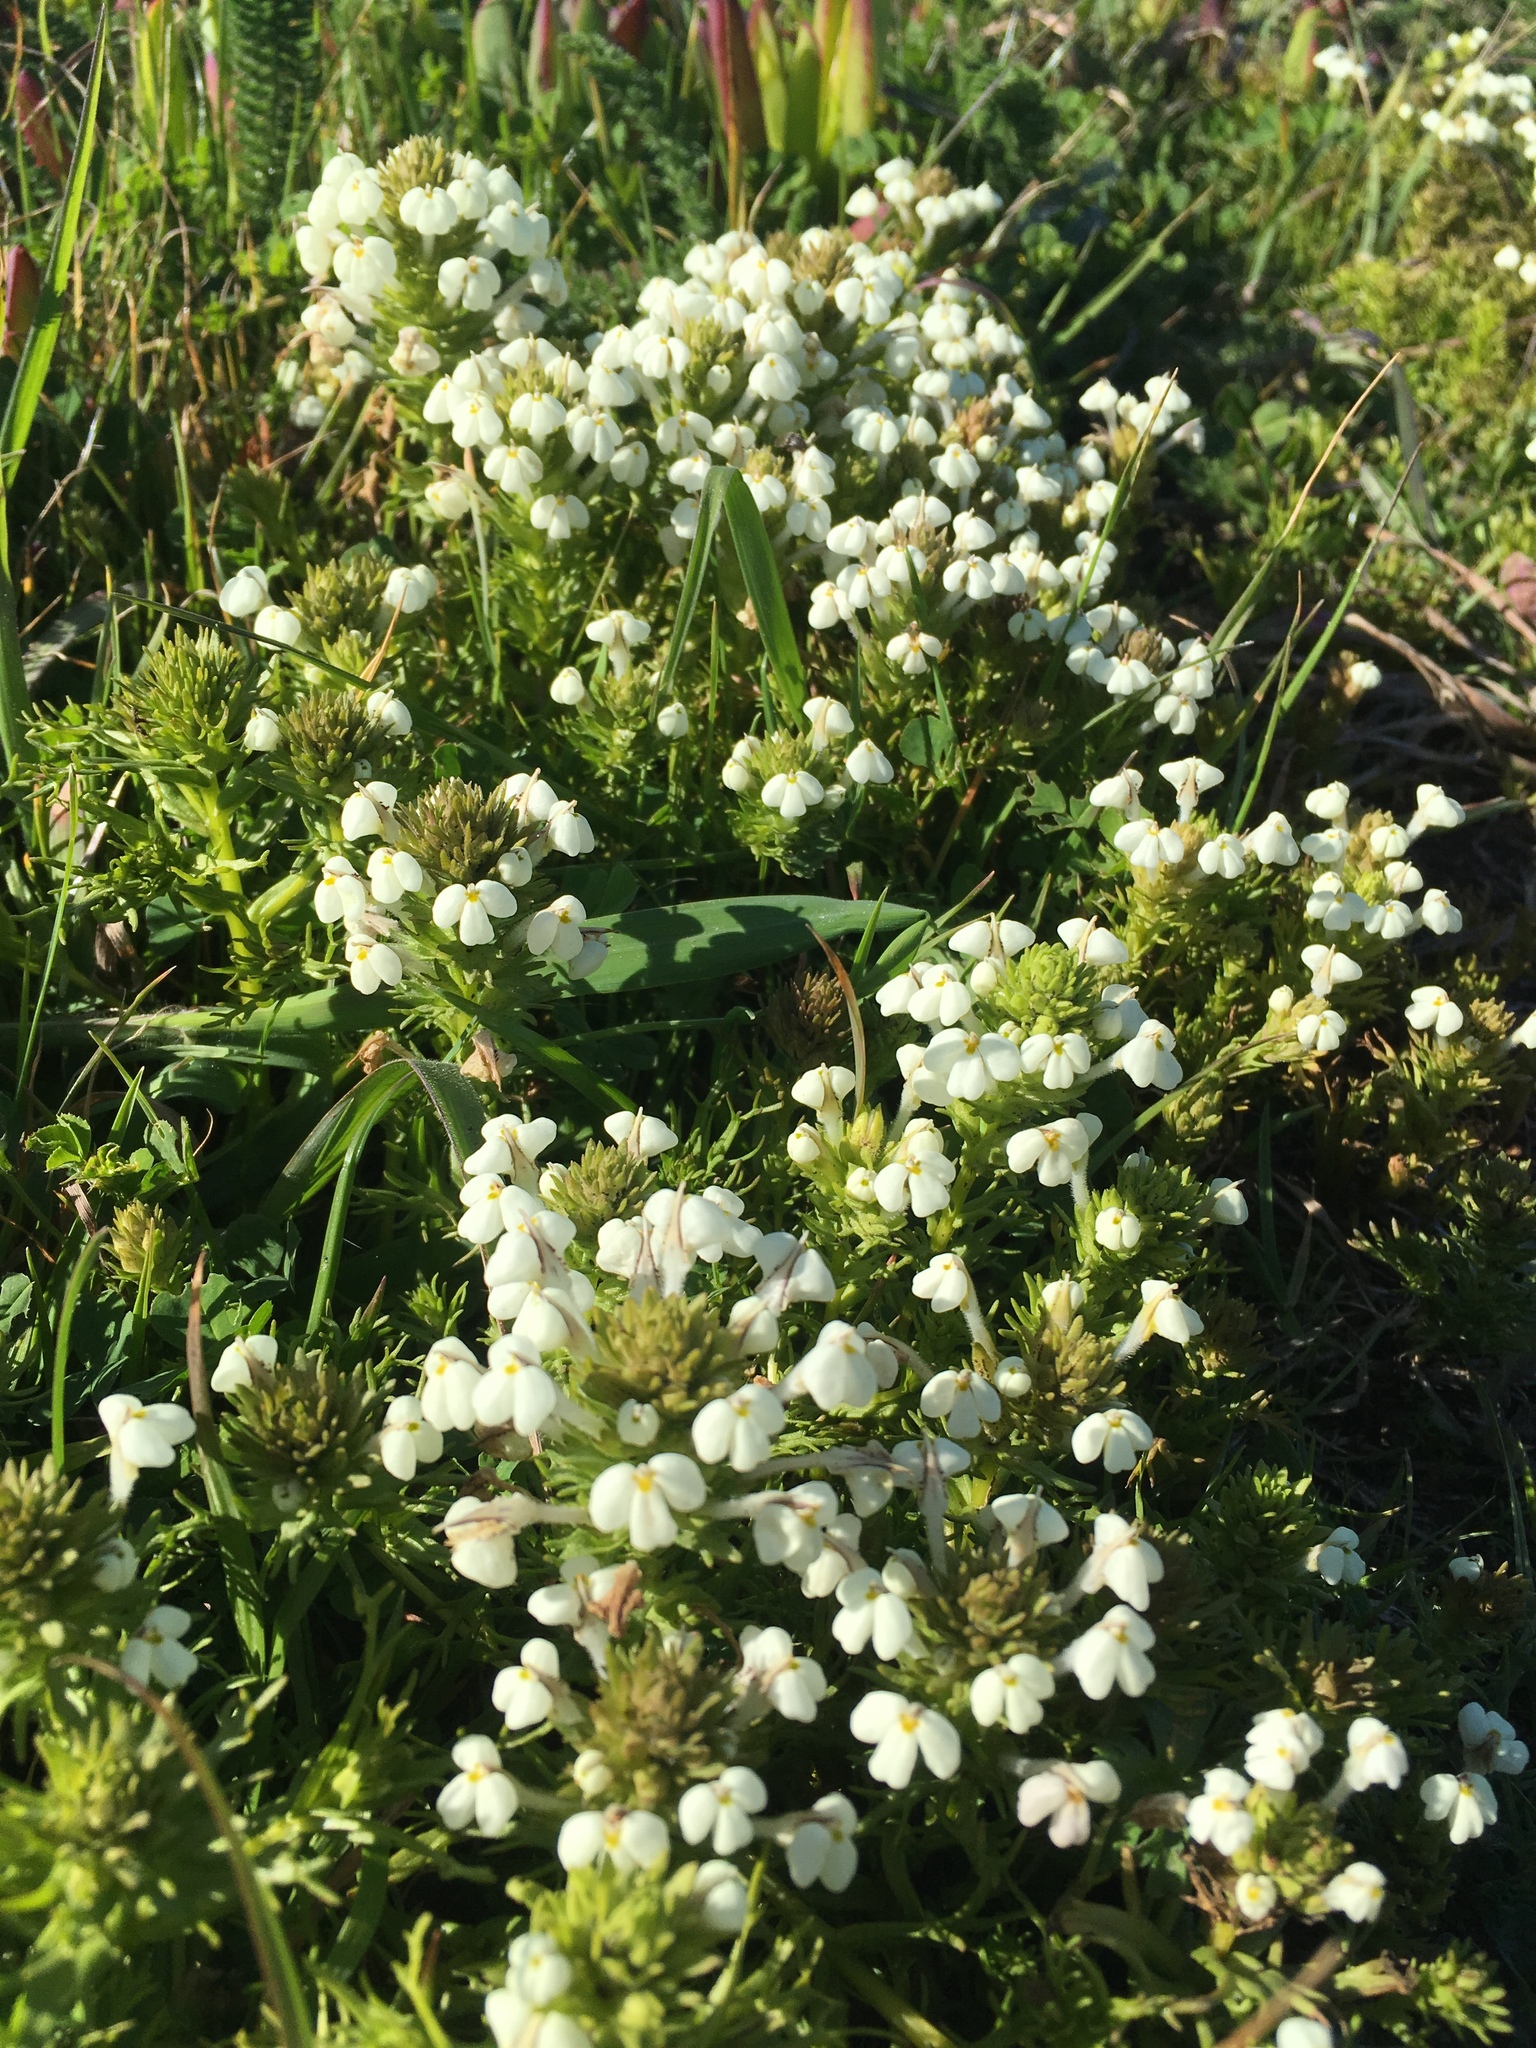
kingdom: Plantae
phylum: Tracheophyta
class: Magnoliopsida
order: Lamiales
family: Orobanchaceae
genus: Triphysaria
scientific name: Triphysaria versicolor
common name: Bearded false owl-clover
